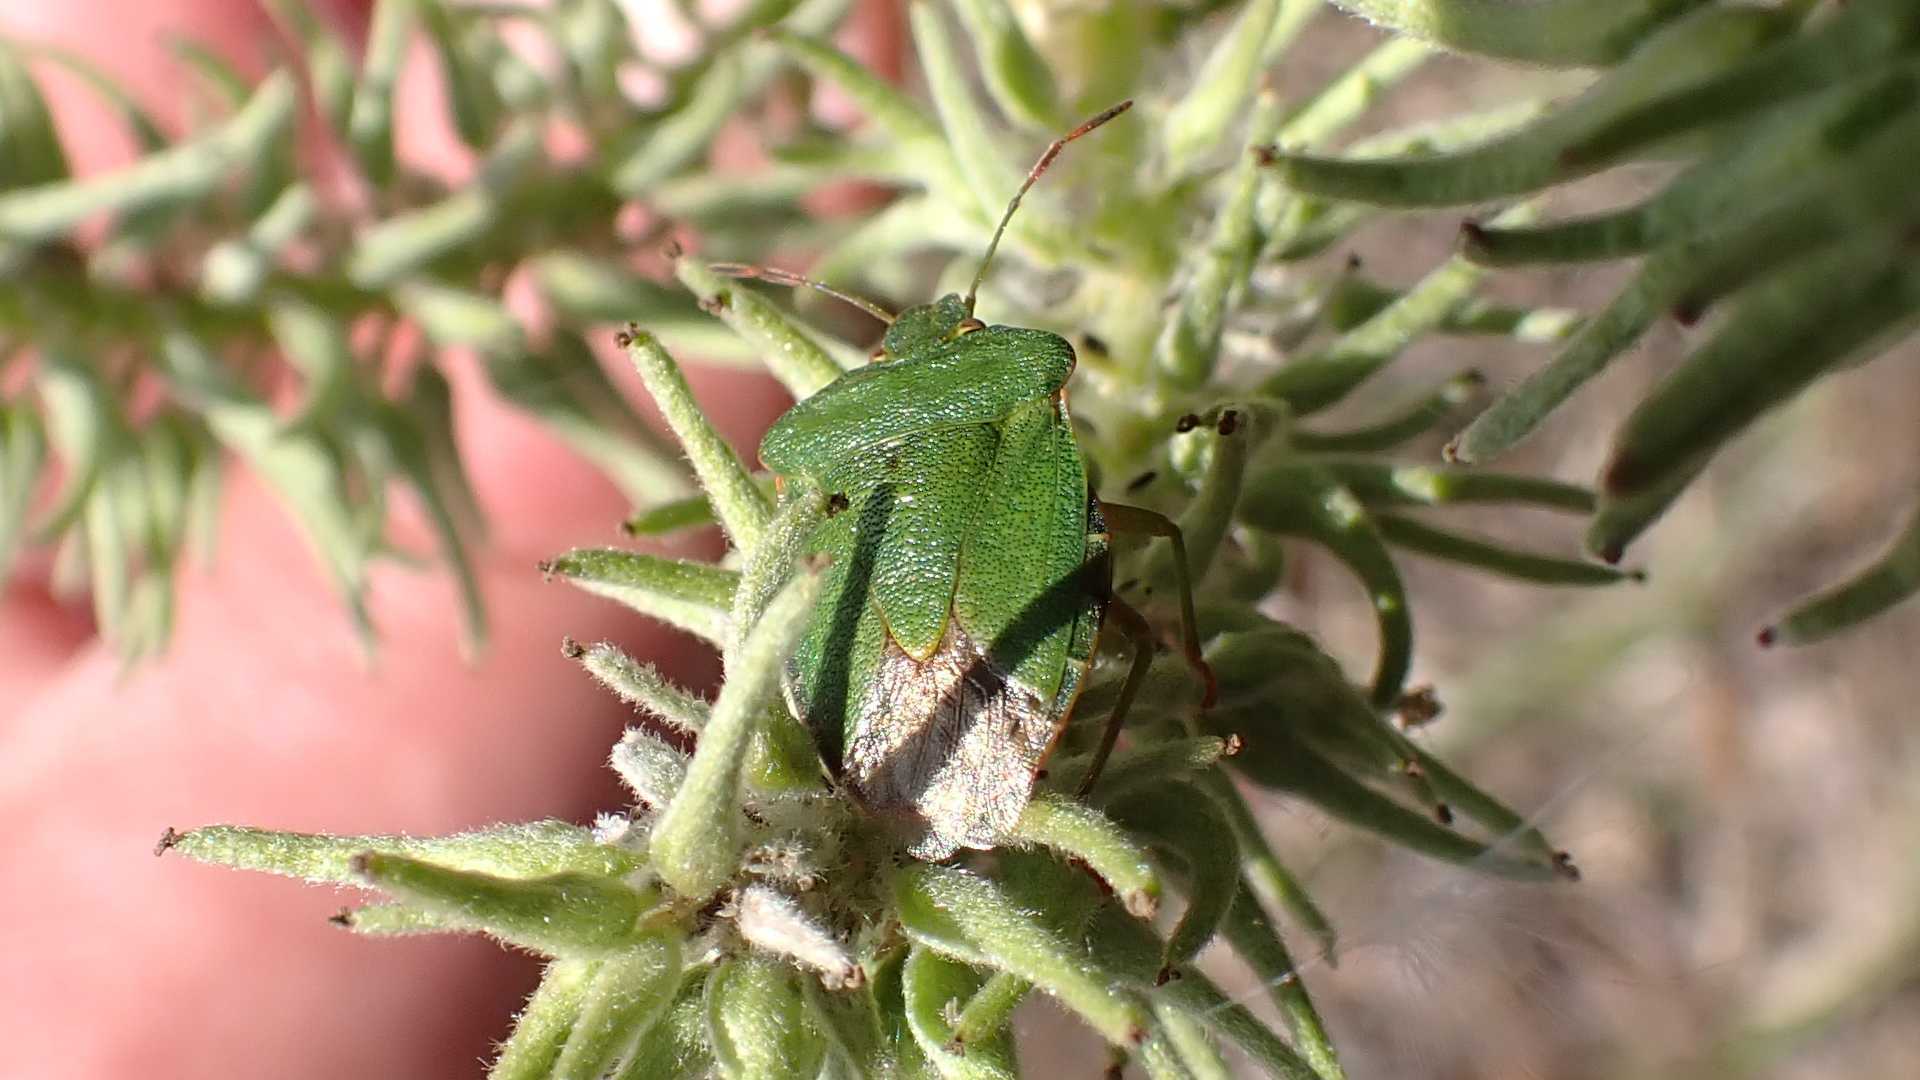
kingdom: Animalia
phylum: Arthropoda
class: Insecta
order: Hemiptera
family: Pentatomidae
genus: Palomena
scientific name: Palomena prasina
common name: Green shieldbug
